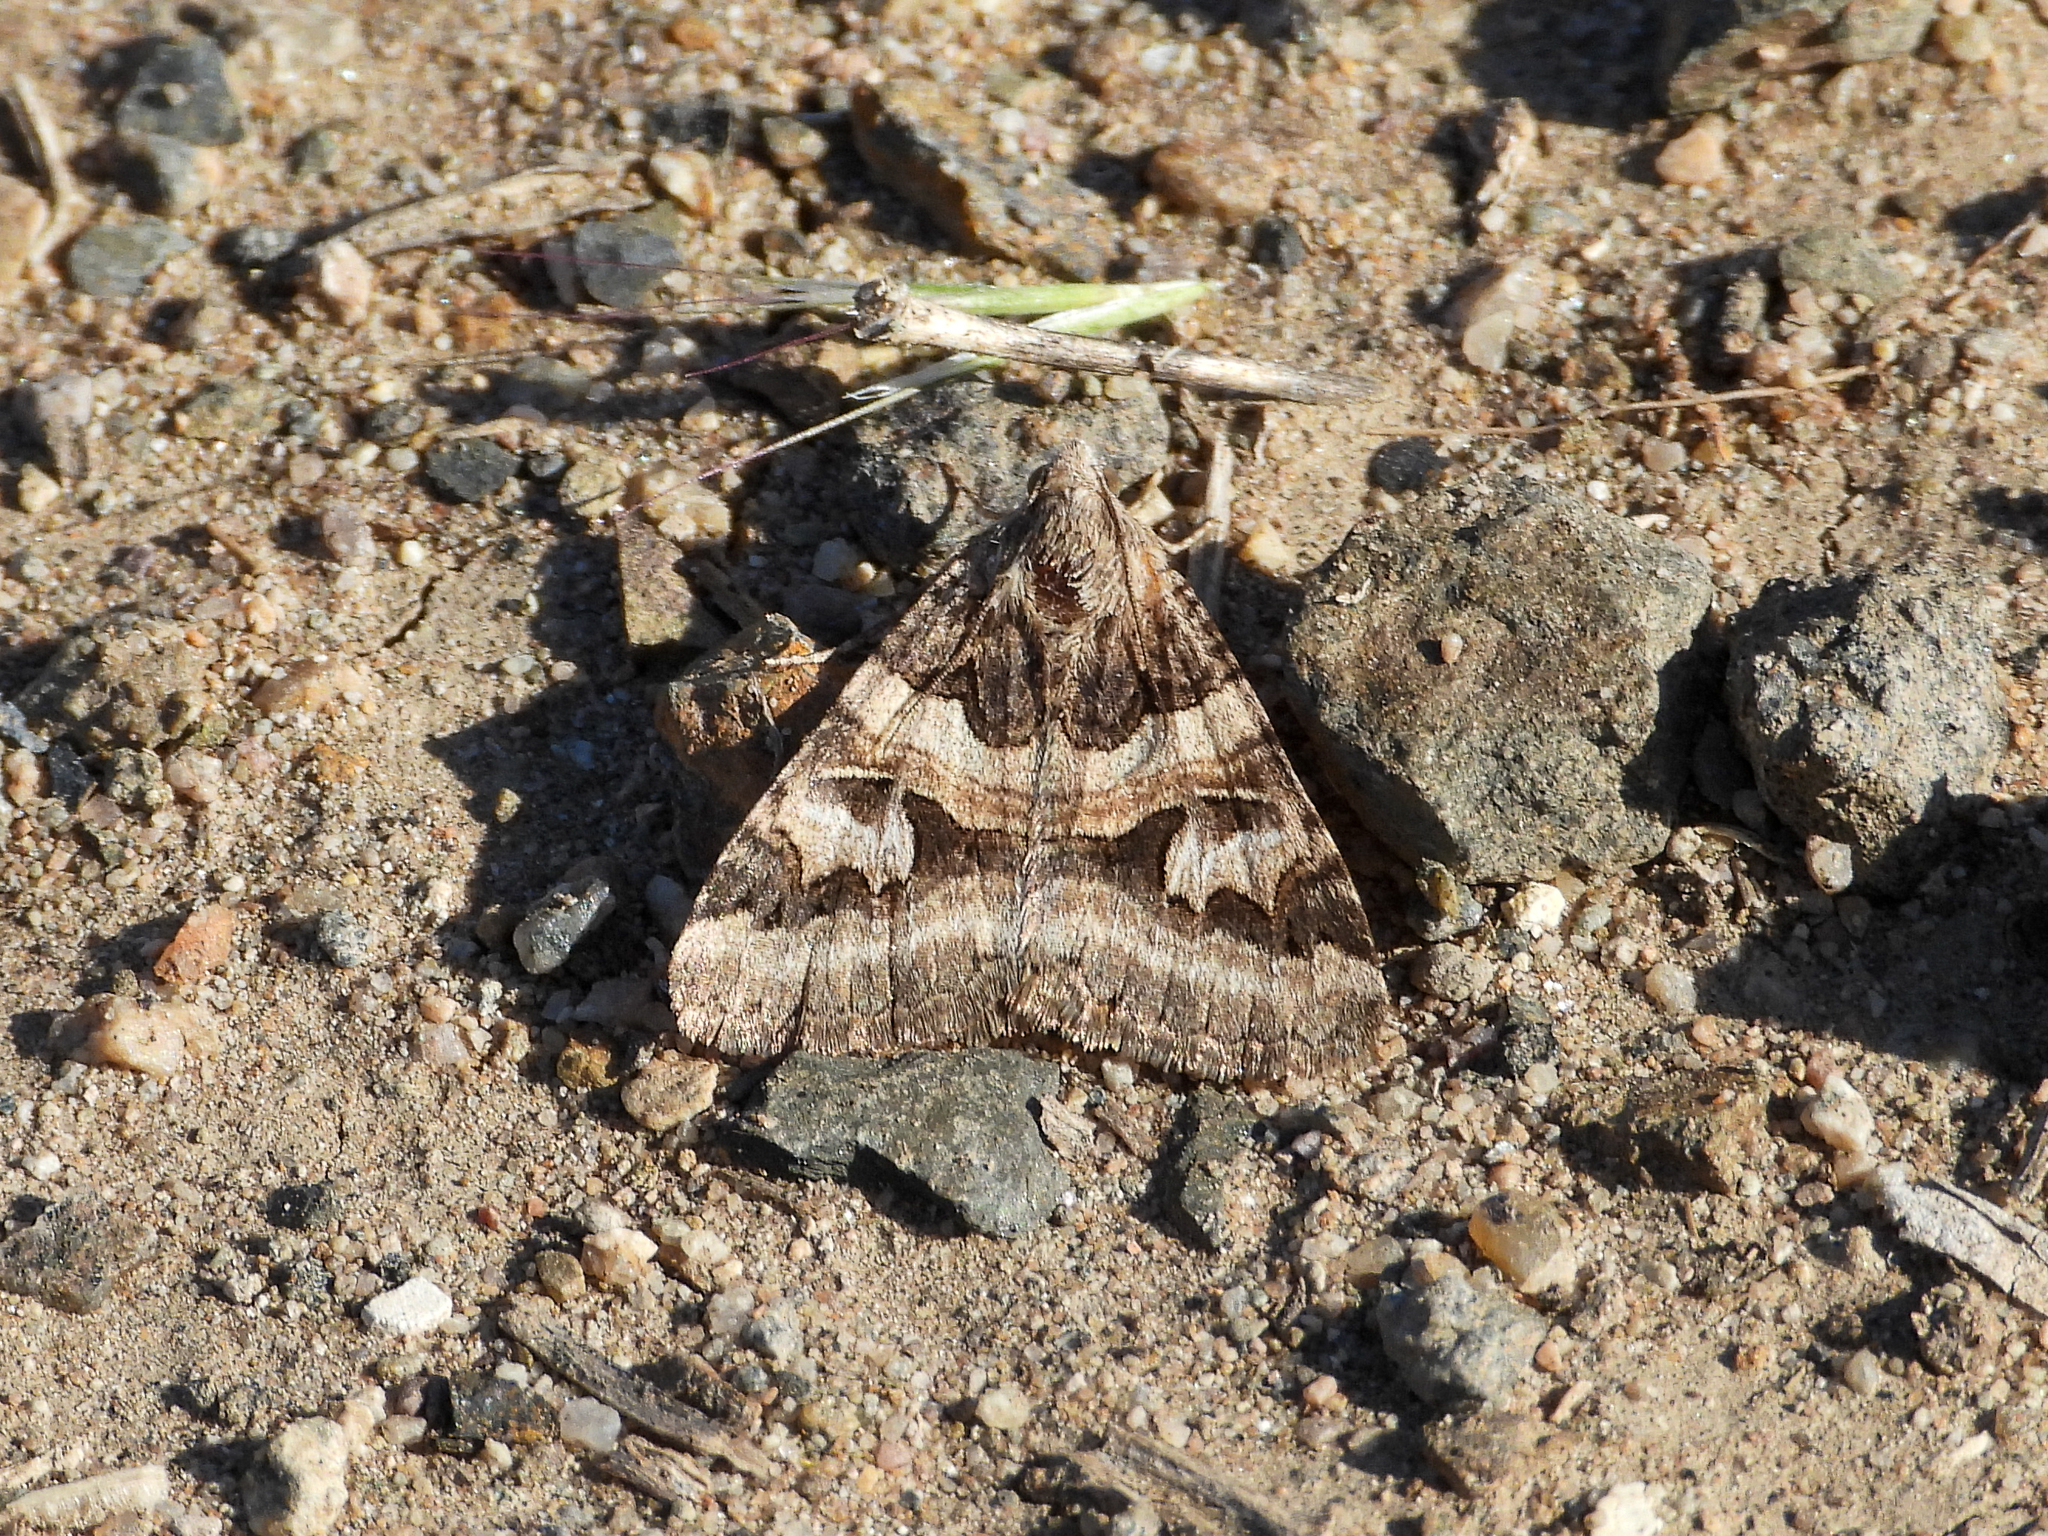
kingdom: Animalia
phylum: Arthropoda
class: Insecta
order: Lepidoptera
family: Erebidae
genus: Drasteria
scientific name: Drasteria divergens
